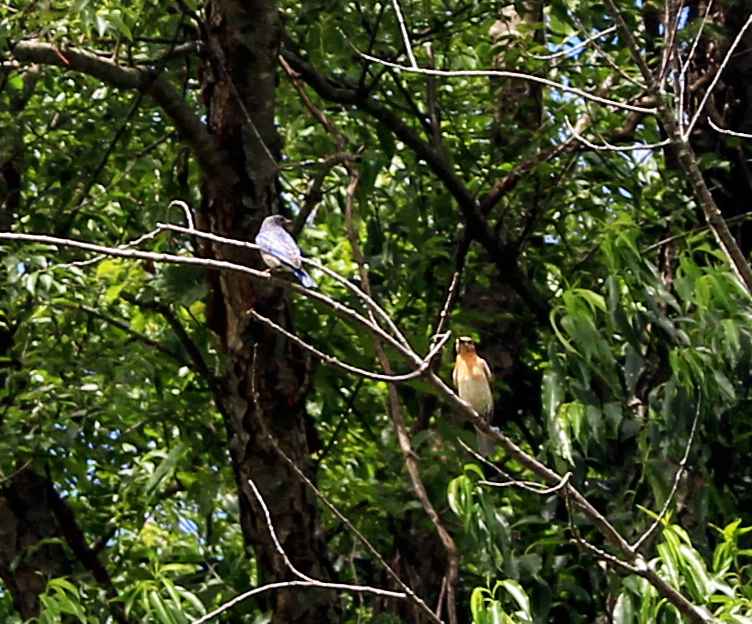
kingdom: Animalia
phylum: Chordata
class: Aves
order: Passeriformes
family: Turdidae
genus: Sialia
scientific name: Sialia sialis
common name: Eastern bluebird
